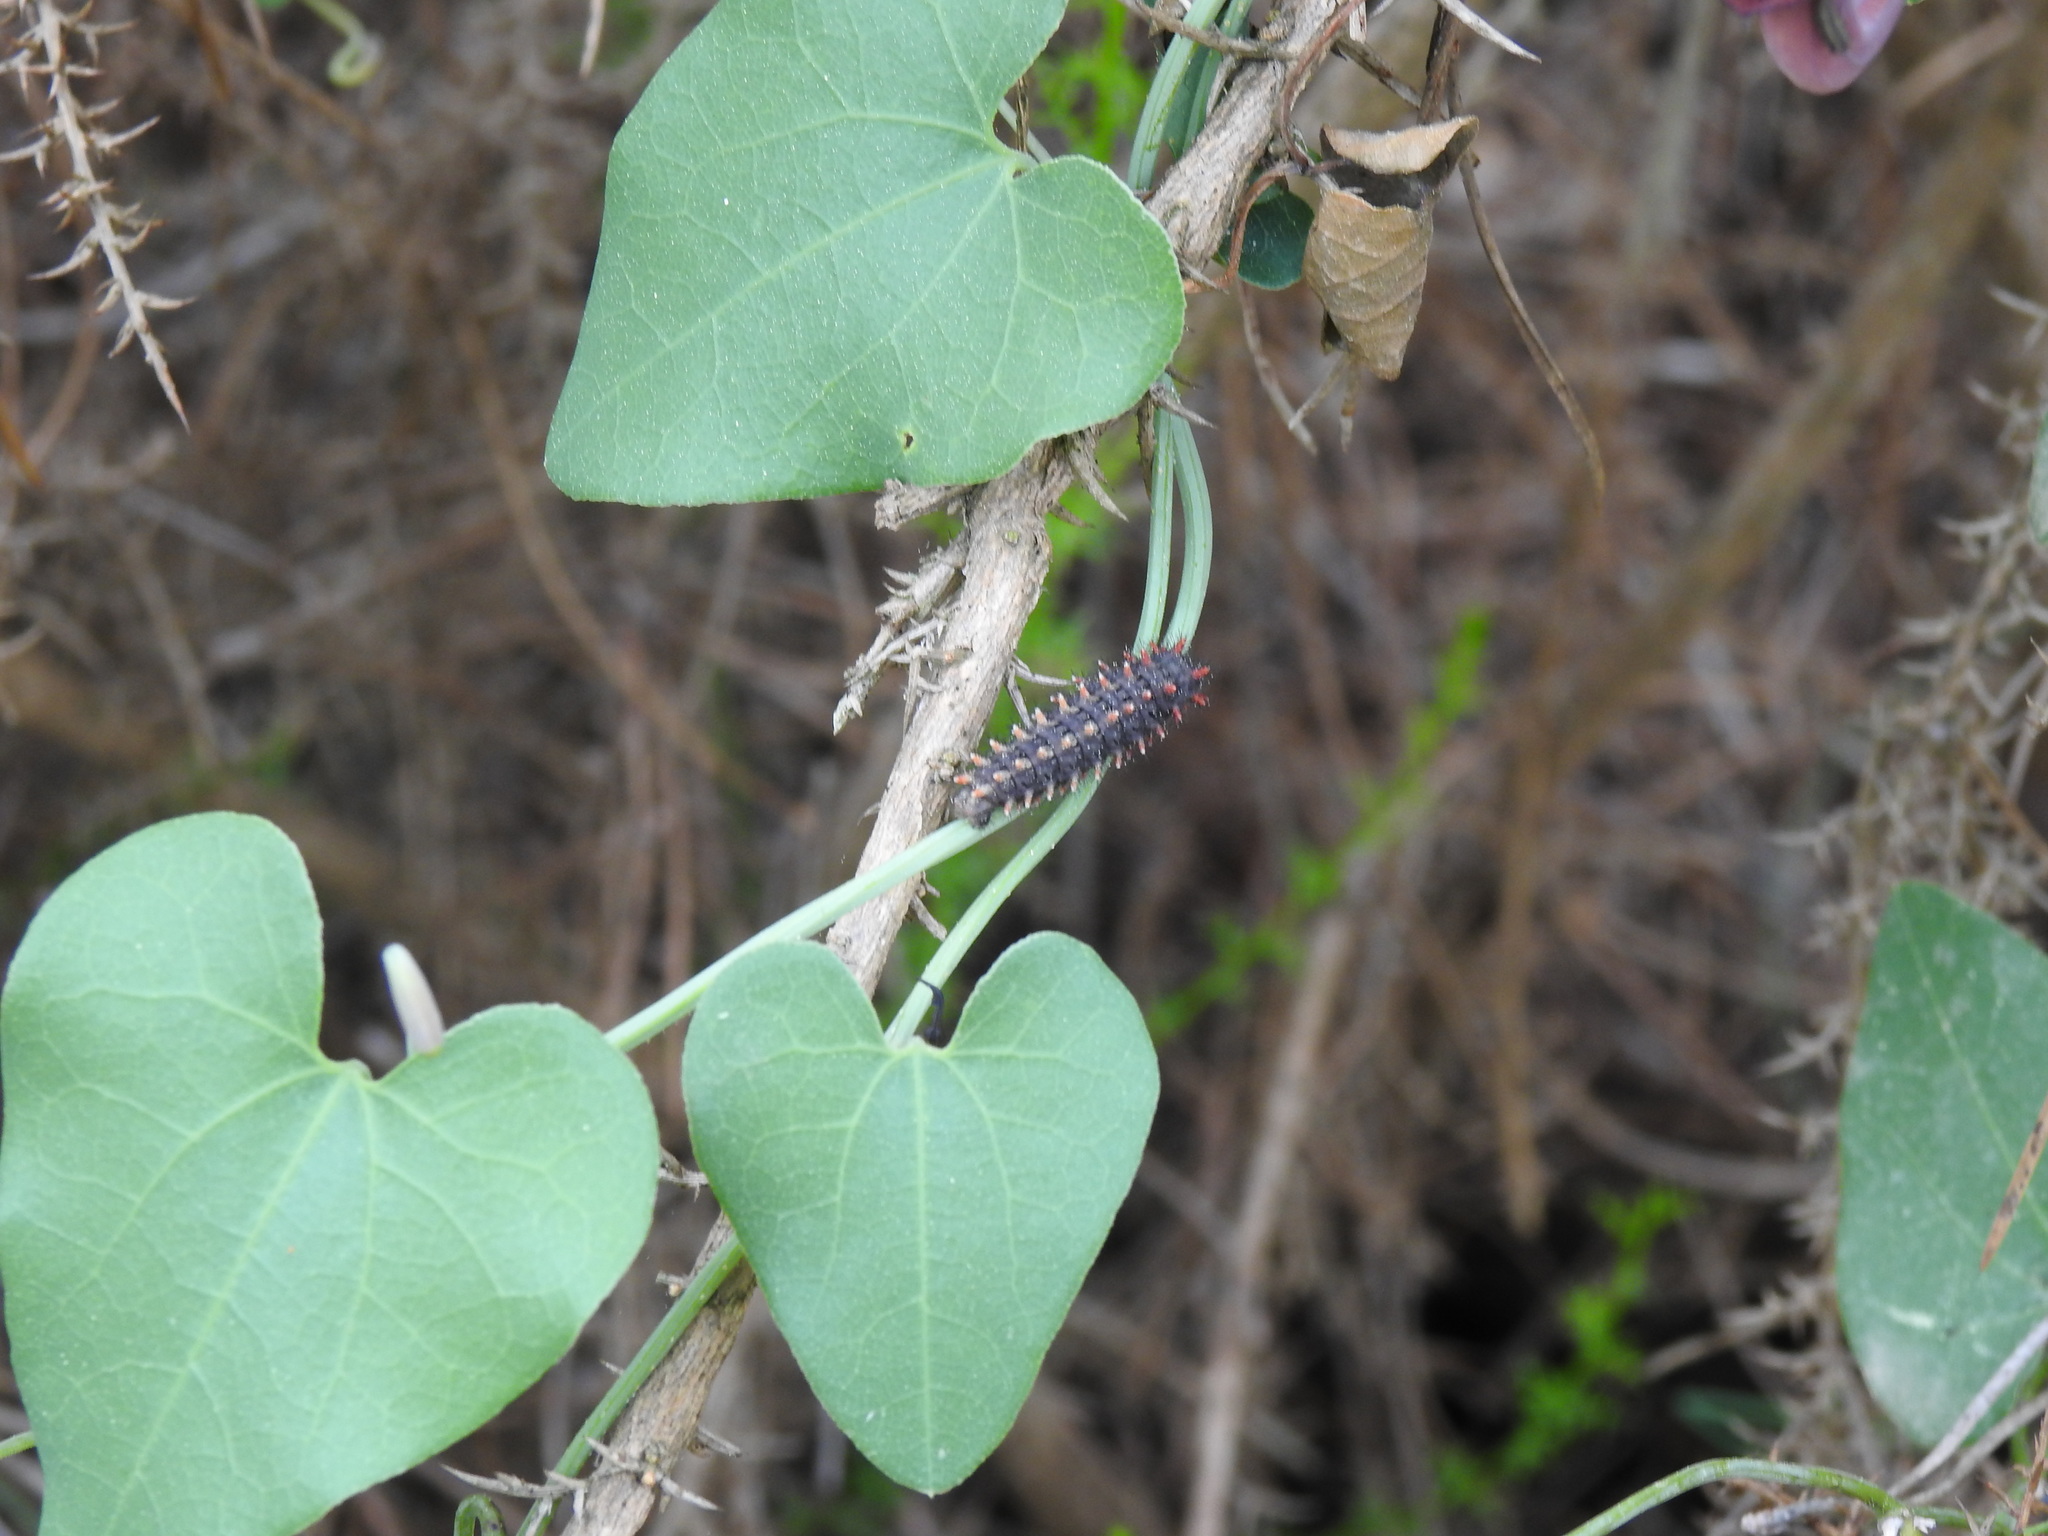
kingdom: Animalia
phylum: Arthropoda
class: Insecta
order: Lepidoptera
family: Papilionidae
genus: Zerynthia
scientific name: Zerynthia rumina
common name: Spanish festoon
